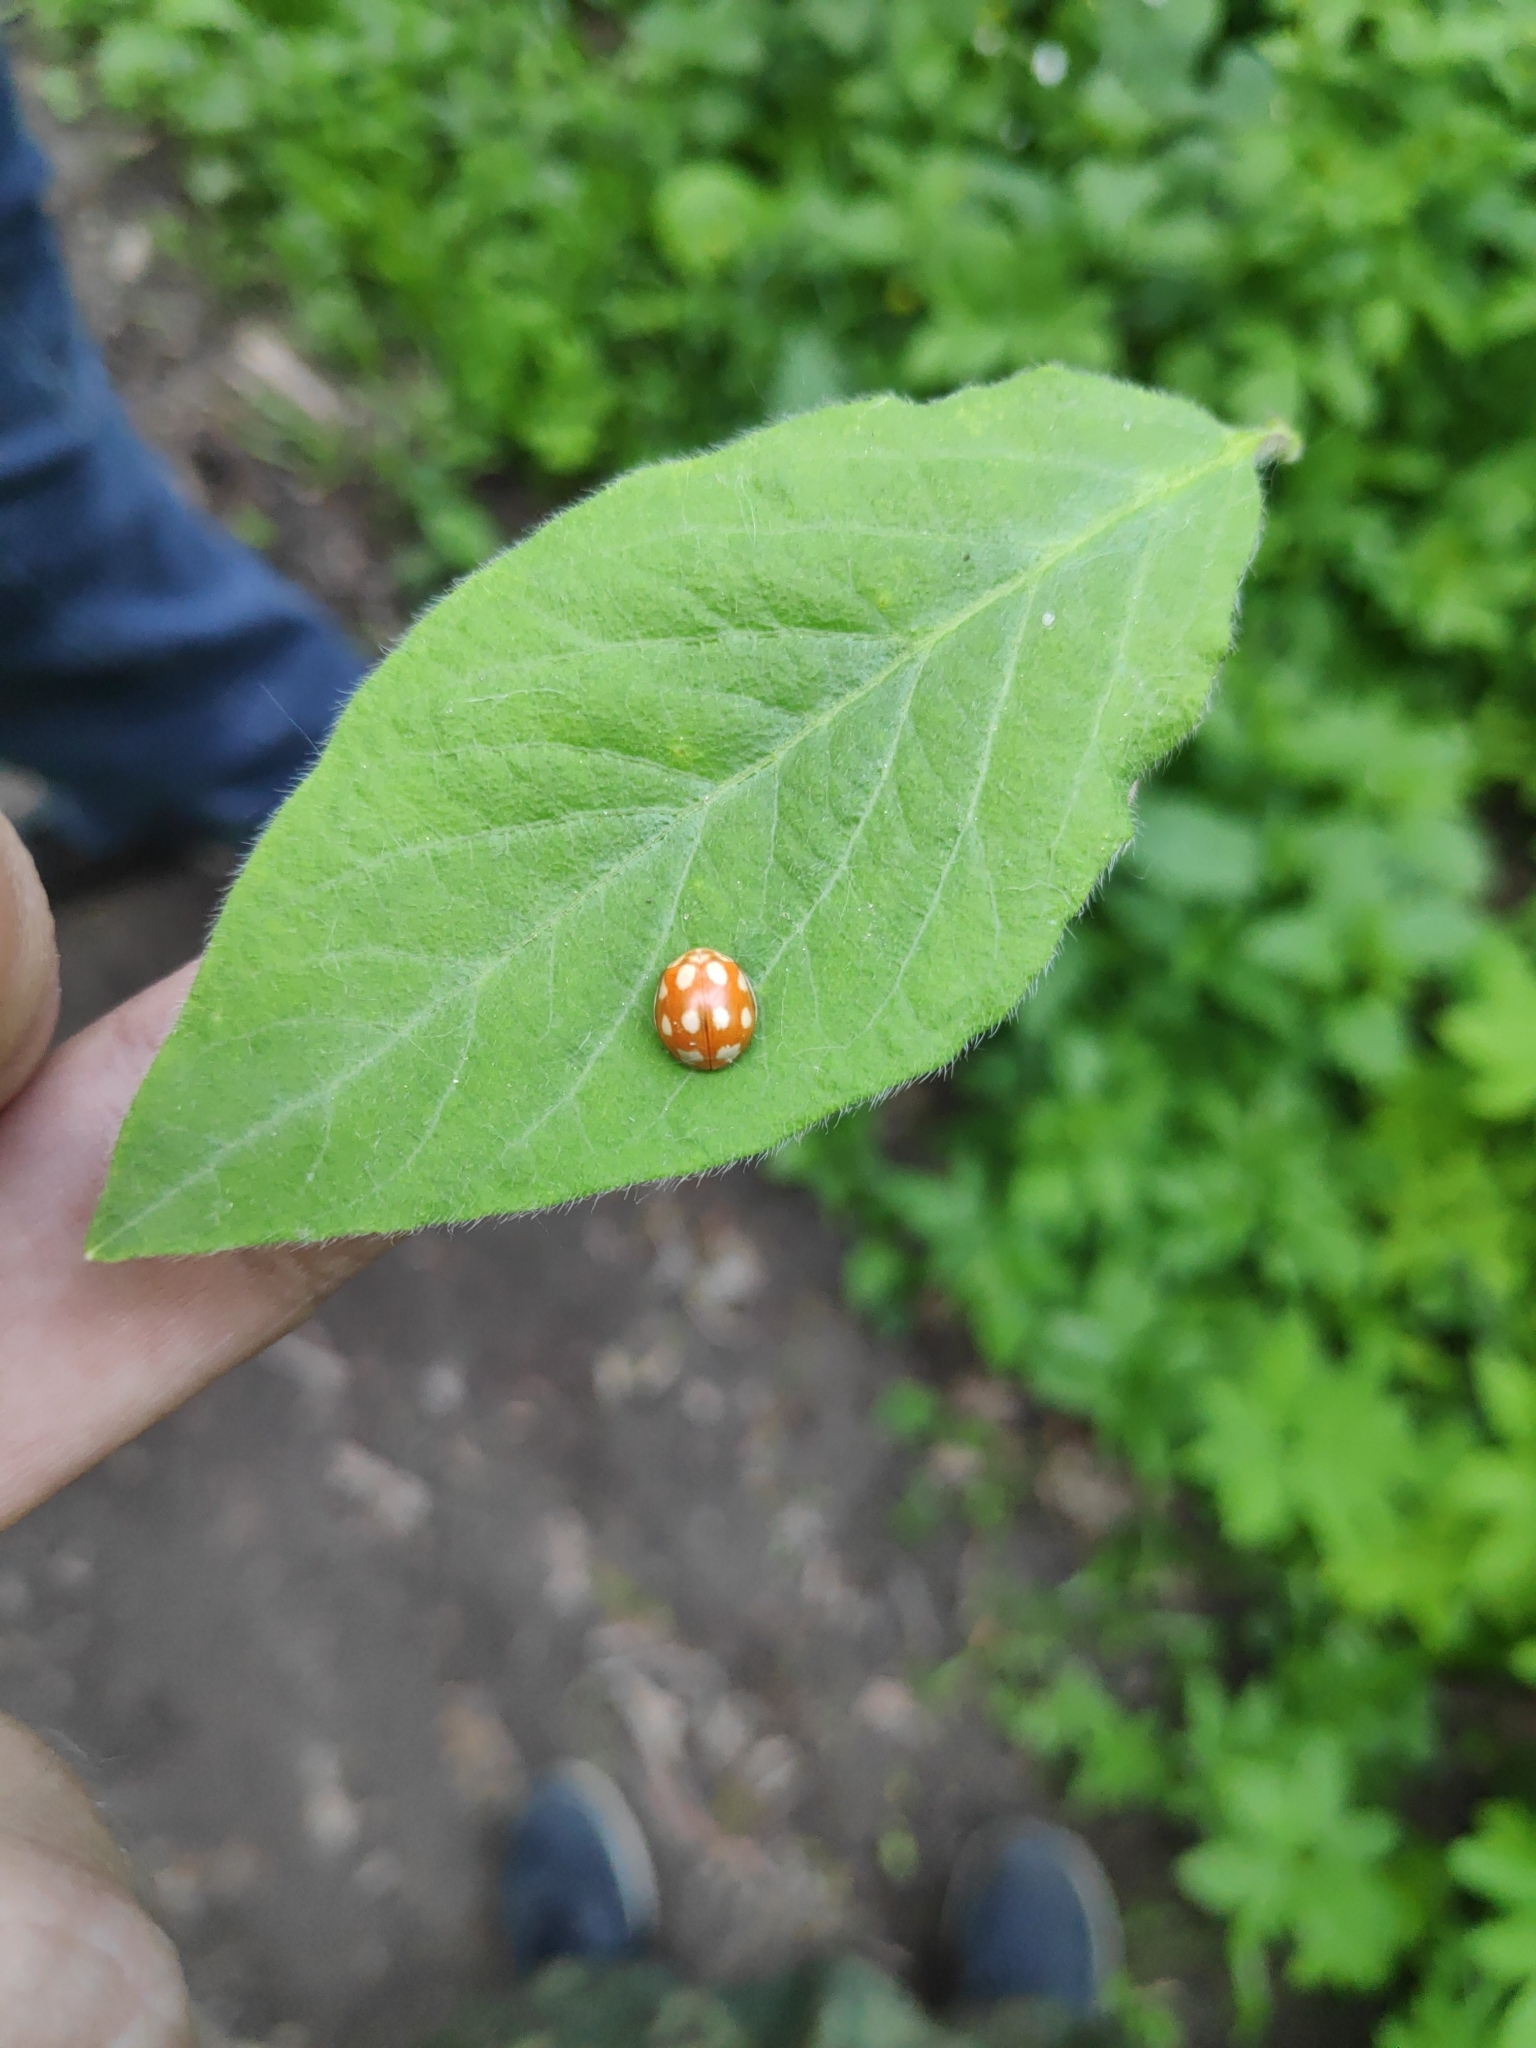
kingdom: Animalia
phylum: Arthropoda
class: Insecta
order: Coleoptera
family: Coccinellidae
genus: Calvia
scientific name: Calvia decemguttata
